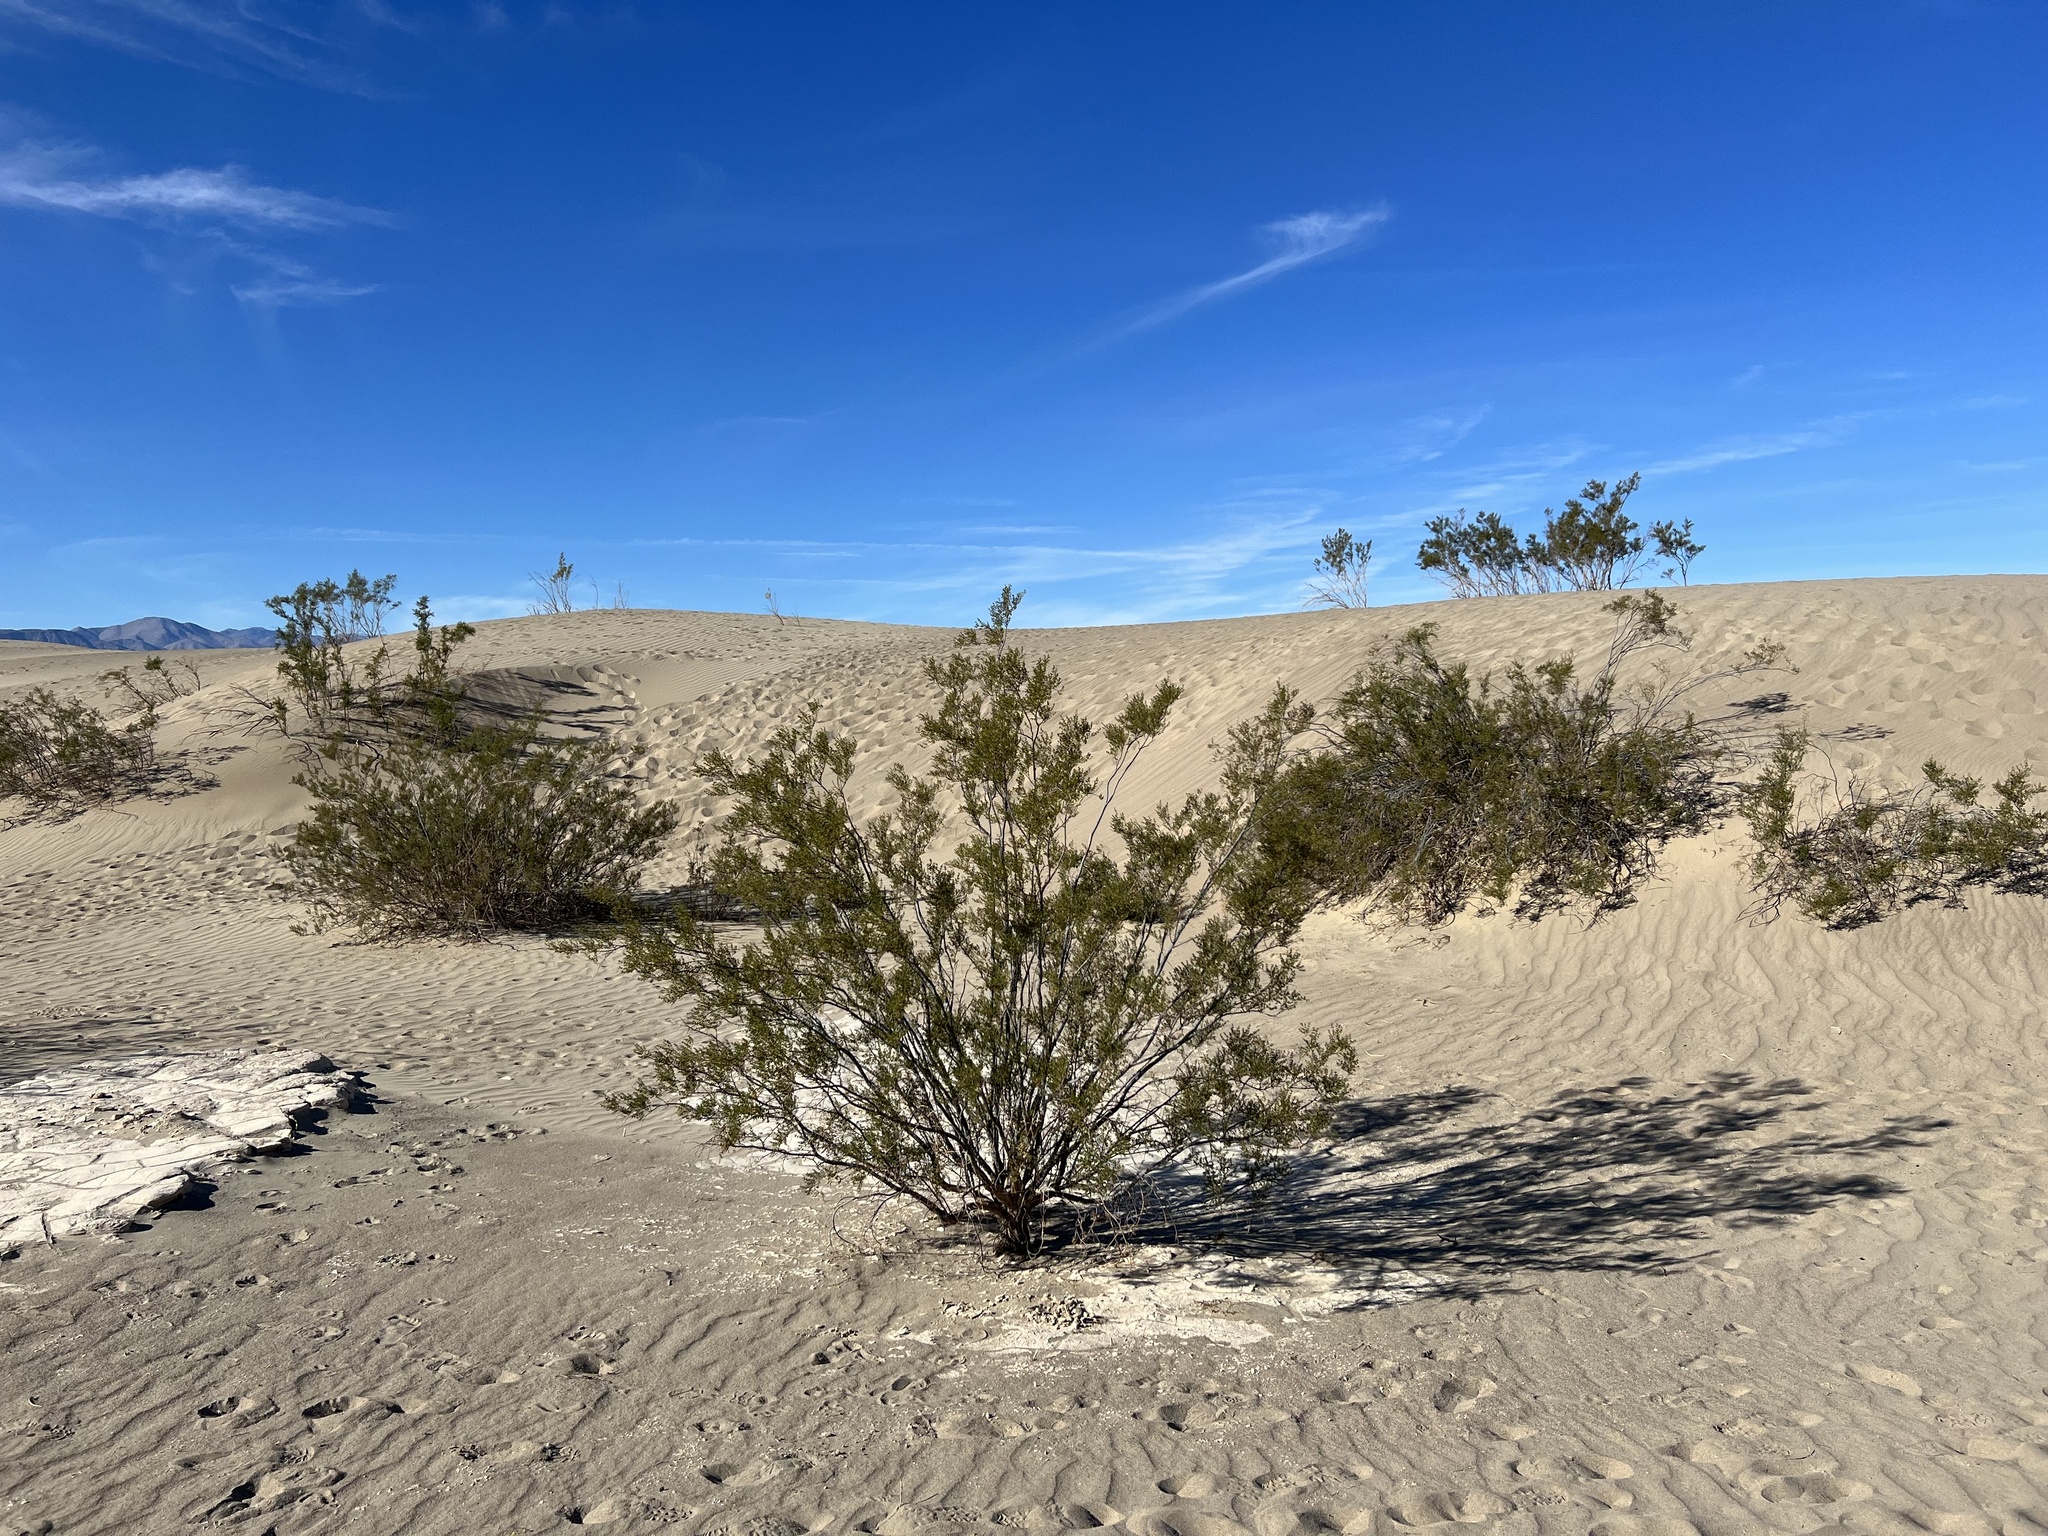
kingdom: Plantae
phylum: Tracheophyta
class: Magnoliopsida
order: Zygophyllales
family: Zygophyllaceae
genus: Larrea
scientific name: Larrea tridentata
